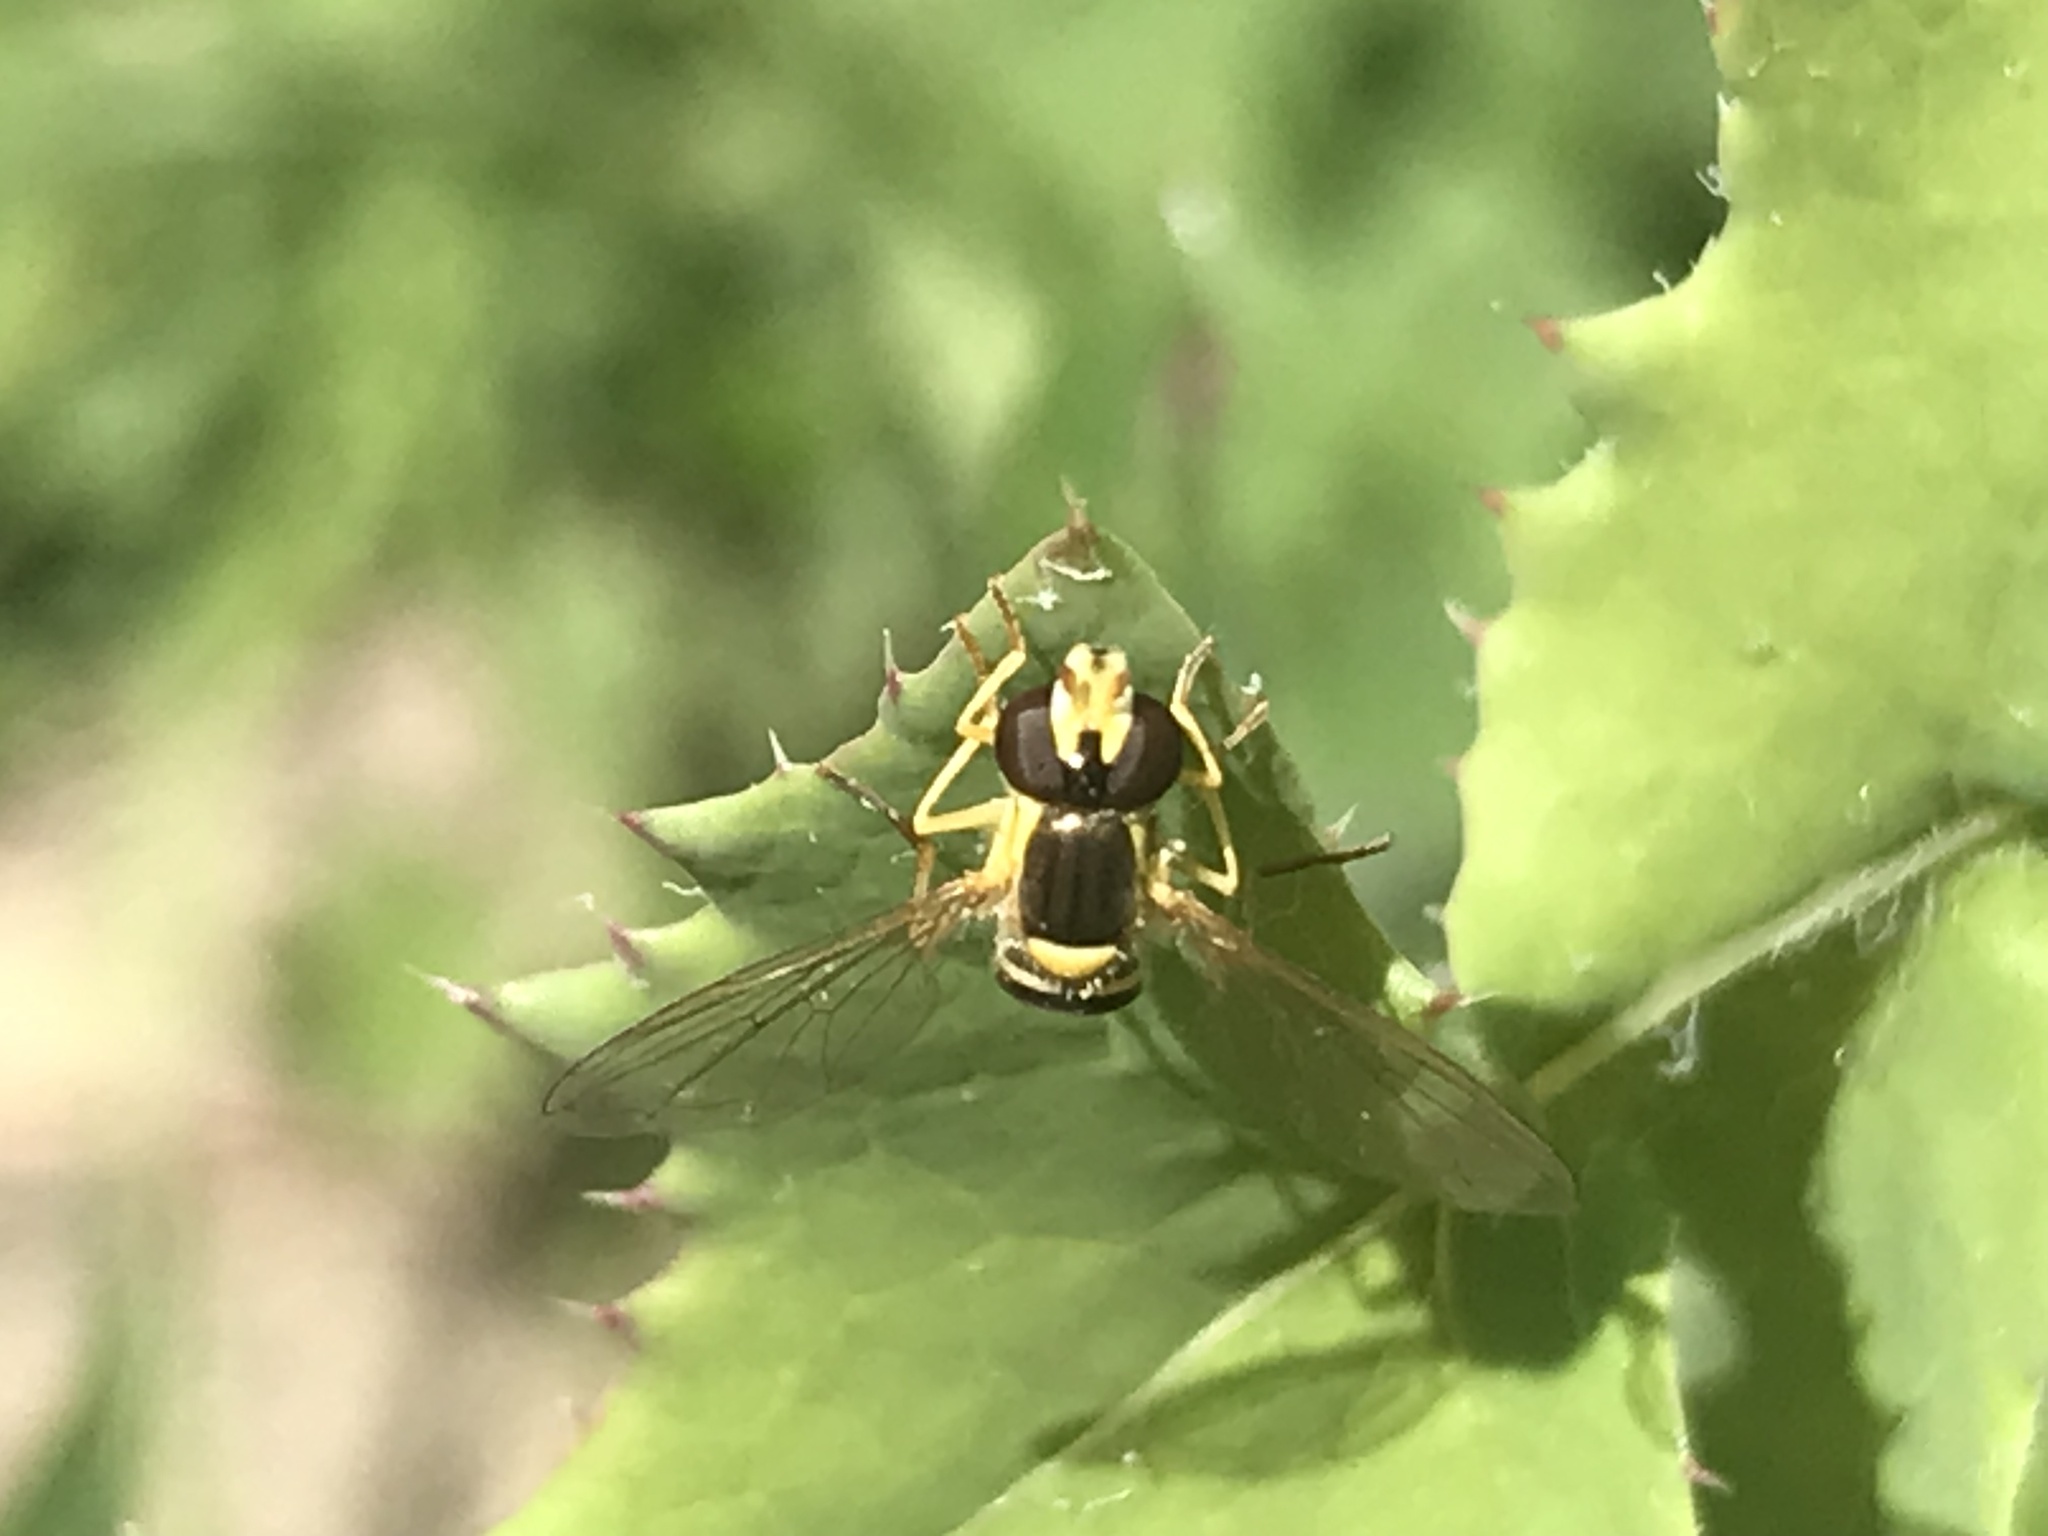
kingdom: Animalia
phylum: Arthropoda
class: Insecta
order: Diptera
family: Syrphidae
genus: Sphaerophoria
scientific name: Sphaerophoria
